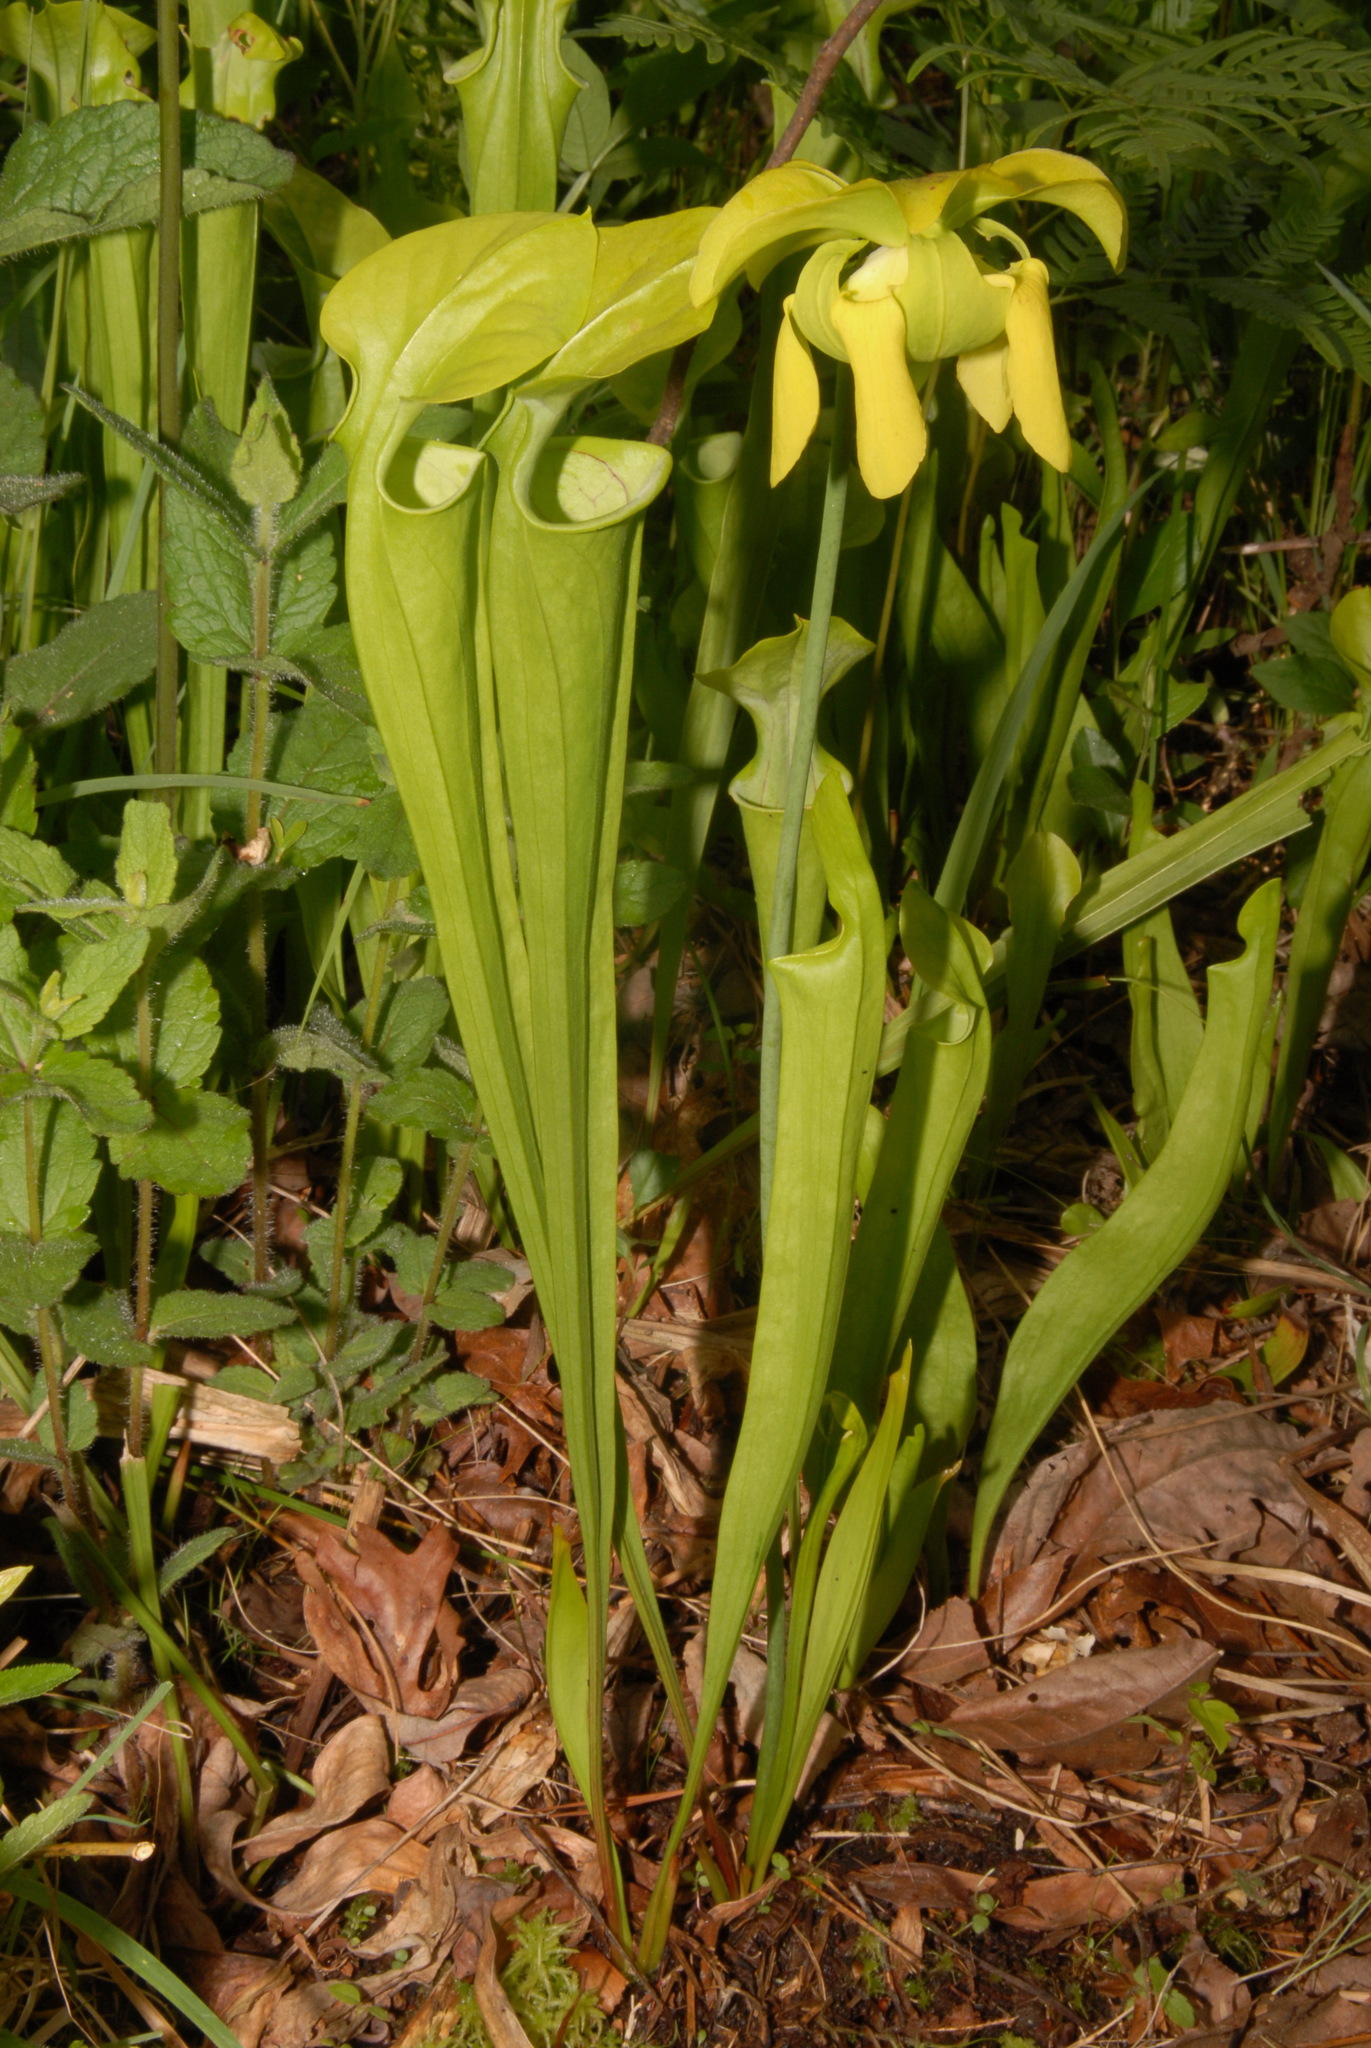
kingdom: Plantae
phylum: Tracheophyta
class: Magnoliopsida
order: Ericales
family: Sarraceniaceae
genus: Sarracenia
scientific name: Sarracenia oreophila
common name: Green pitcherplant
